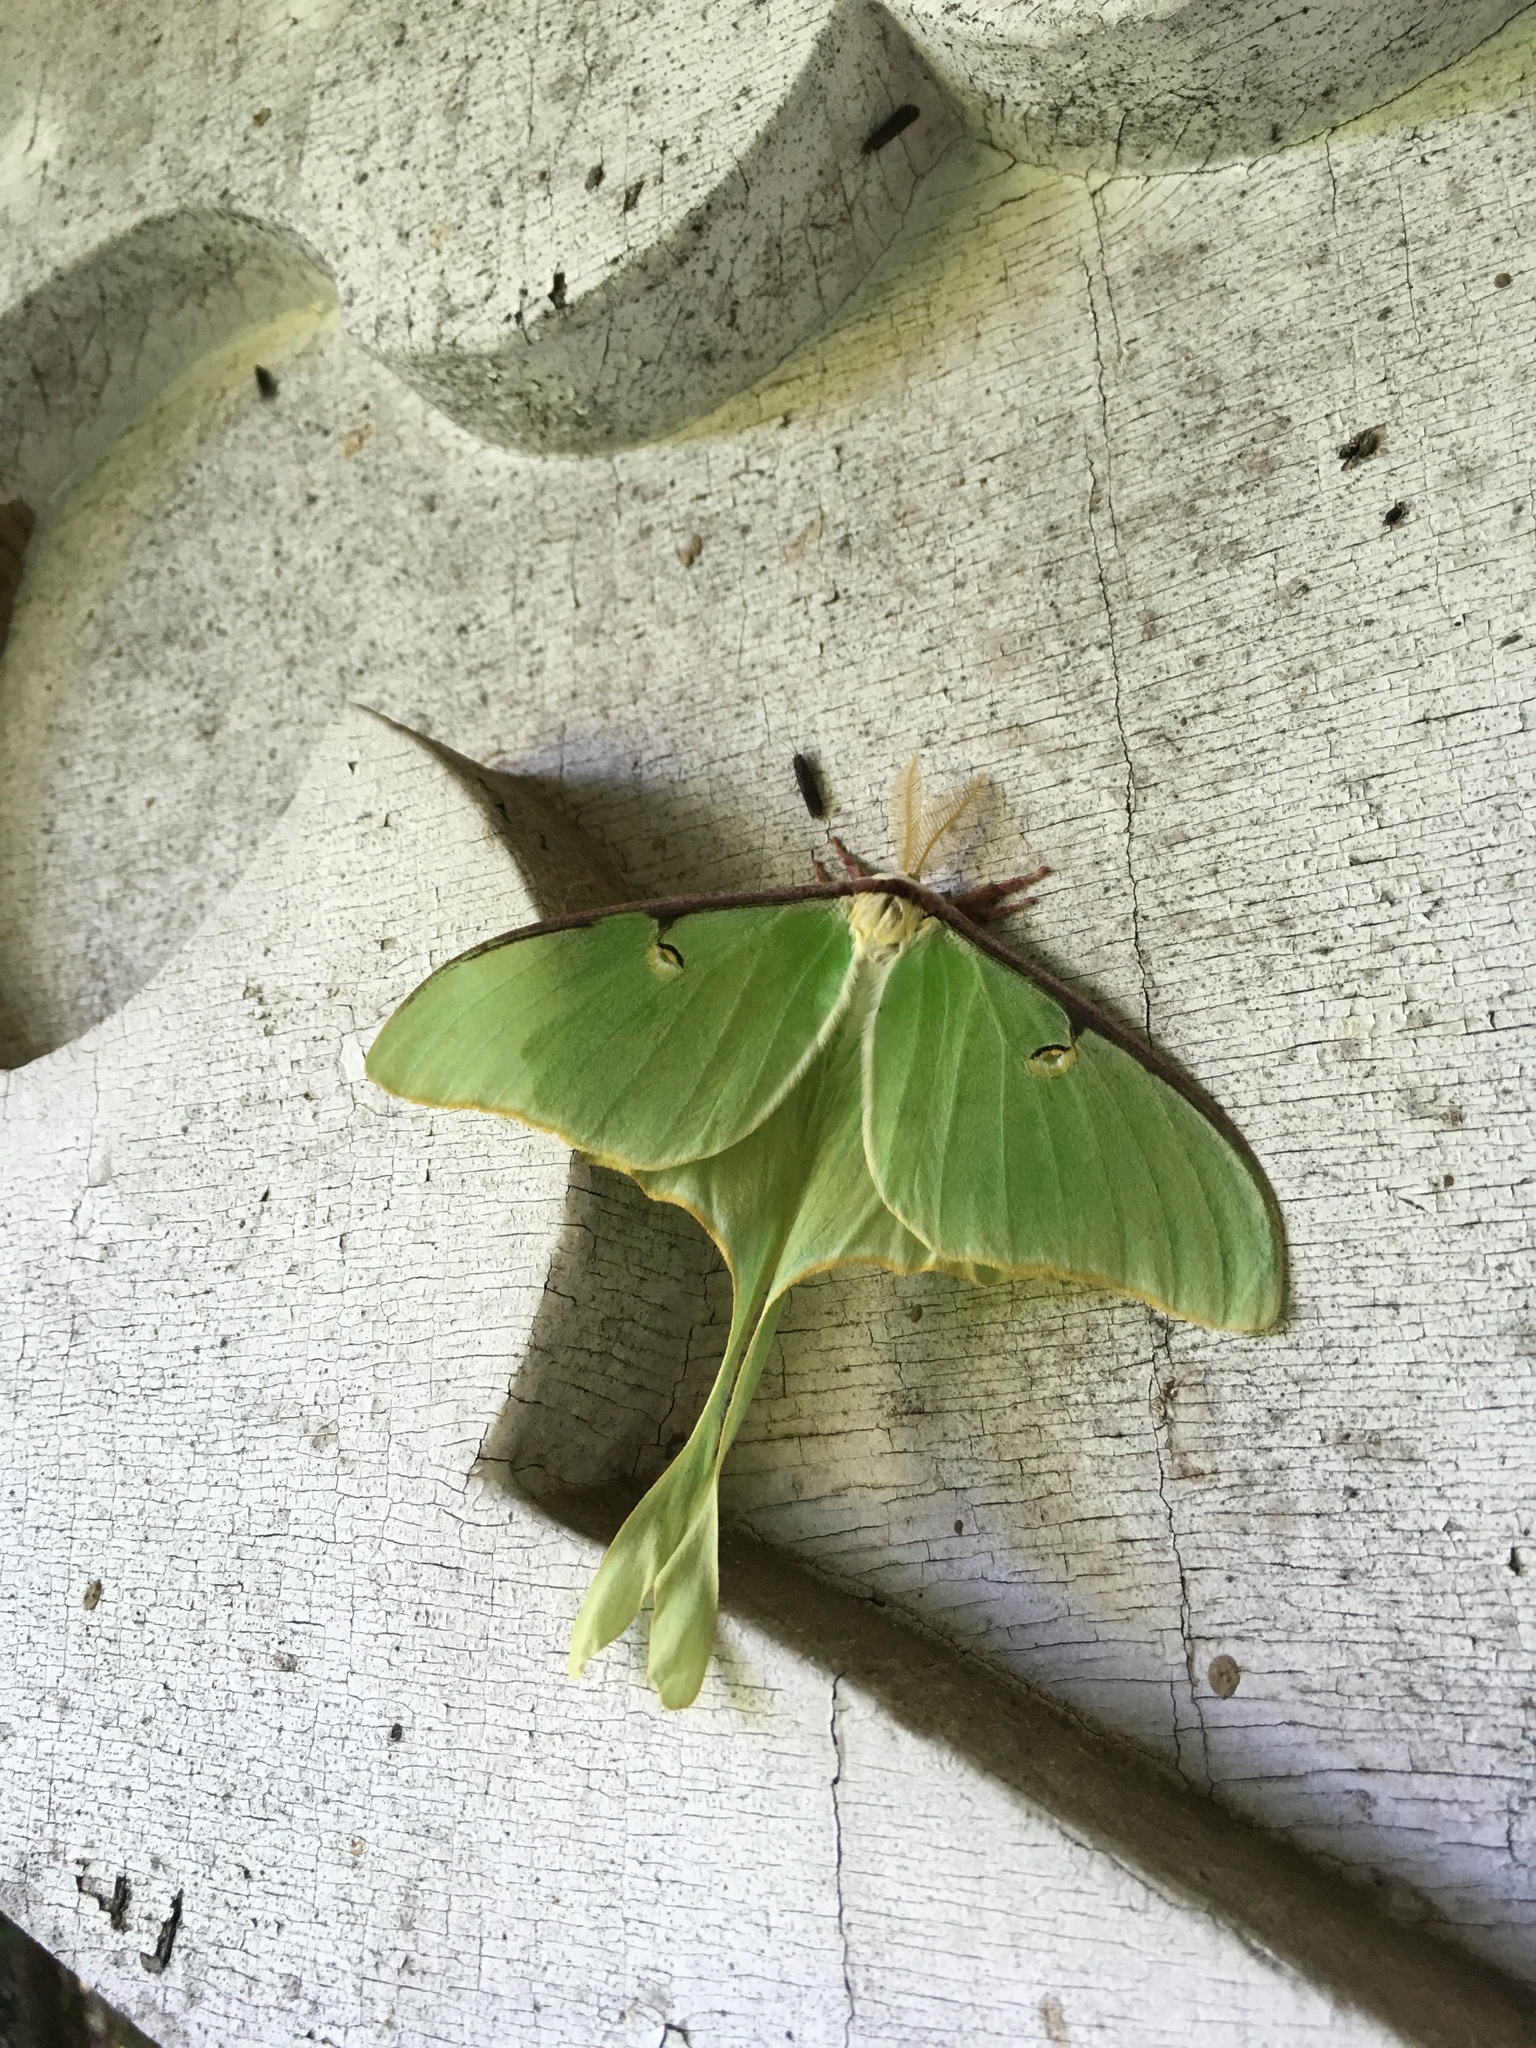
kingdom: Animalia
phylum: Arthropoda
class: Insecta
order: Lepidoptera
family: Saturniidae
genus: Actias
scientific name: Actias luna
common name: Luna moth
